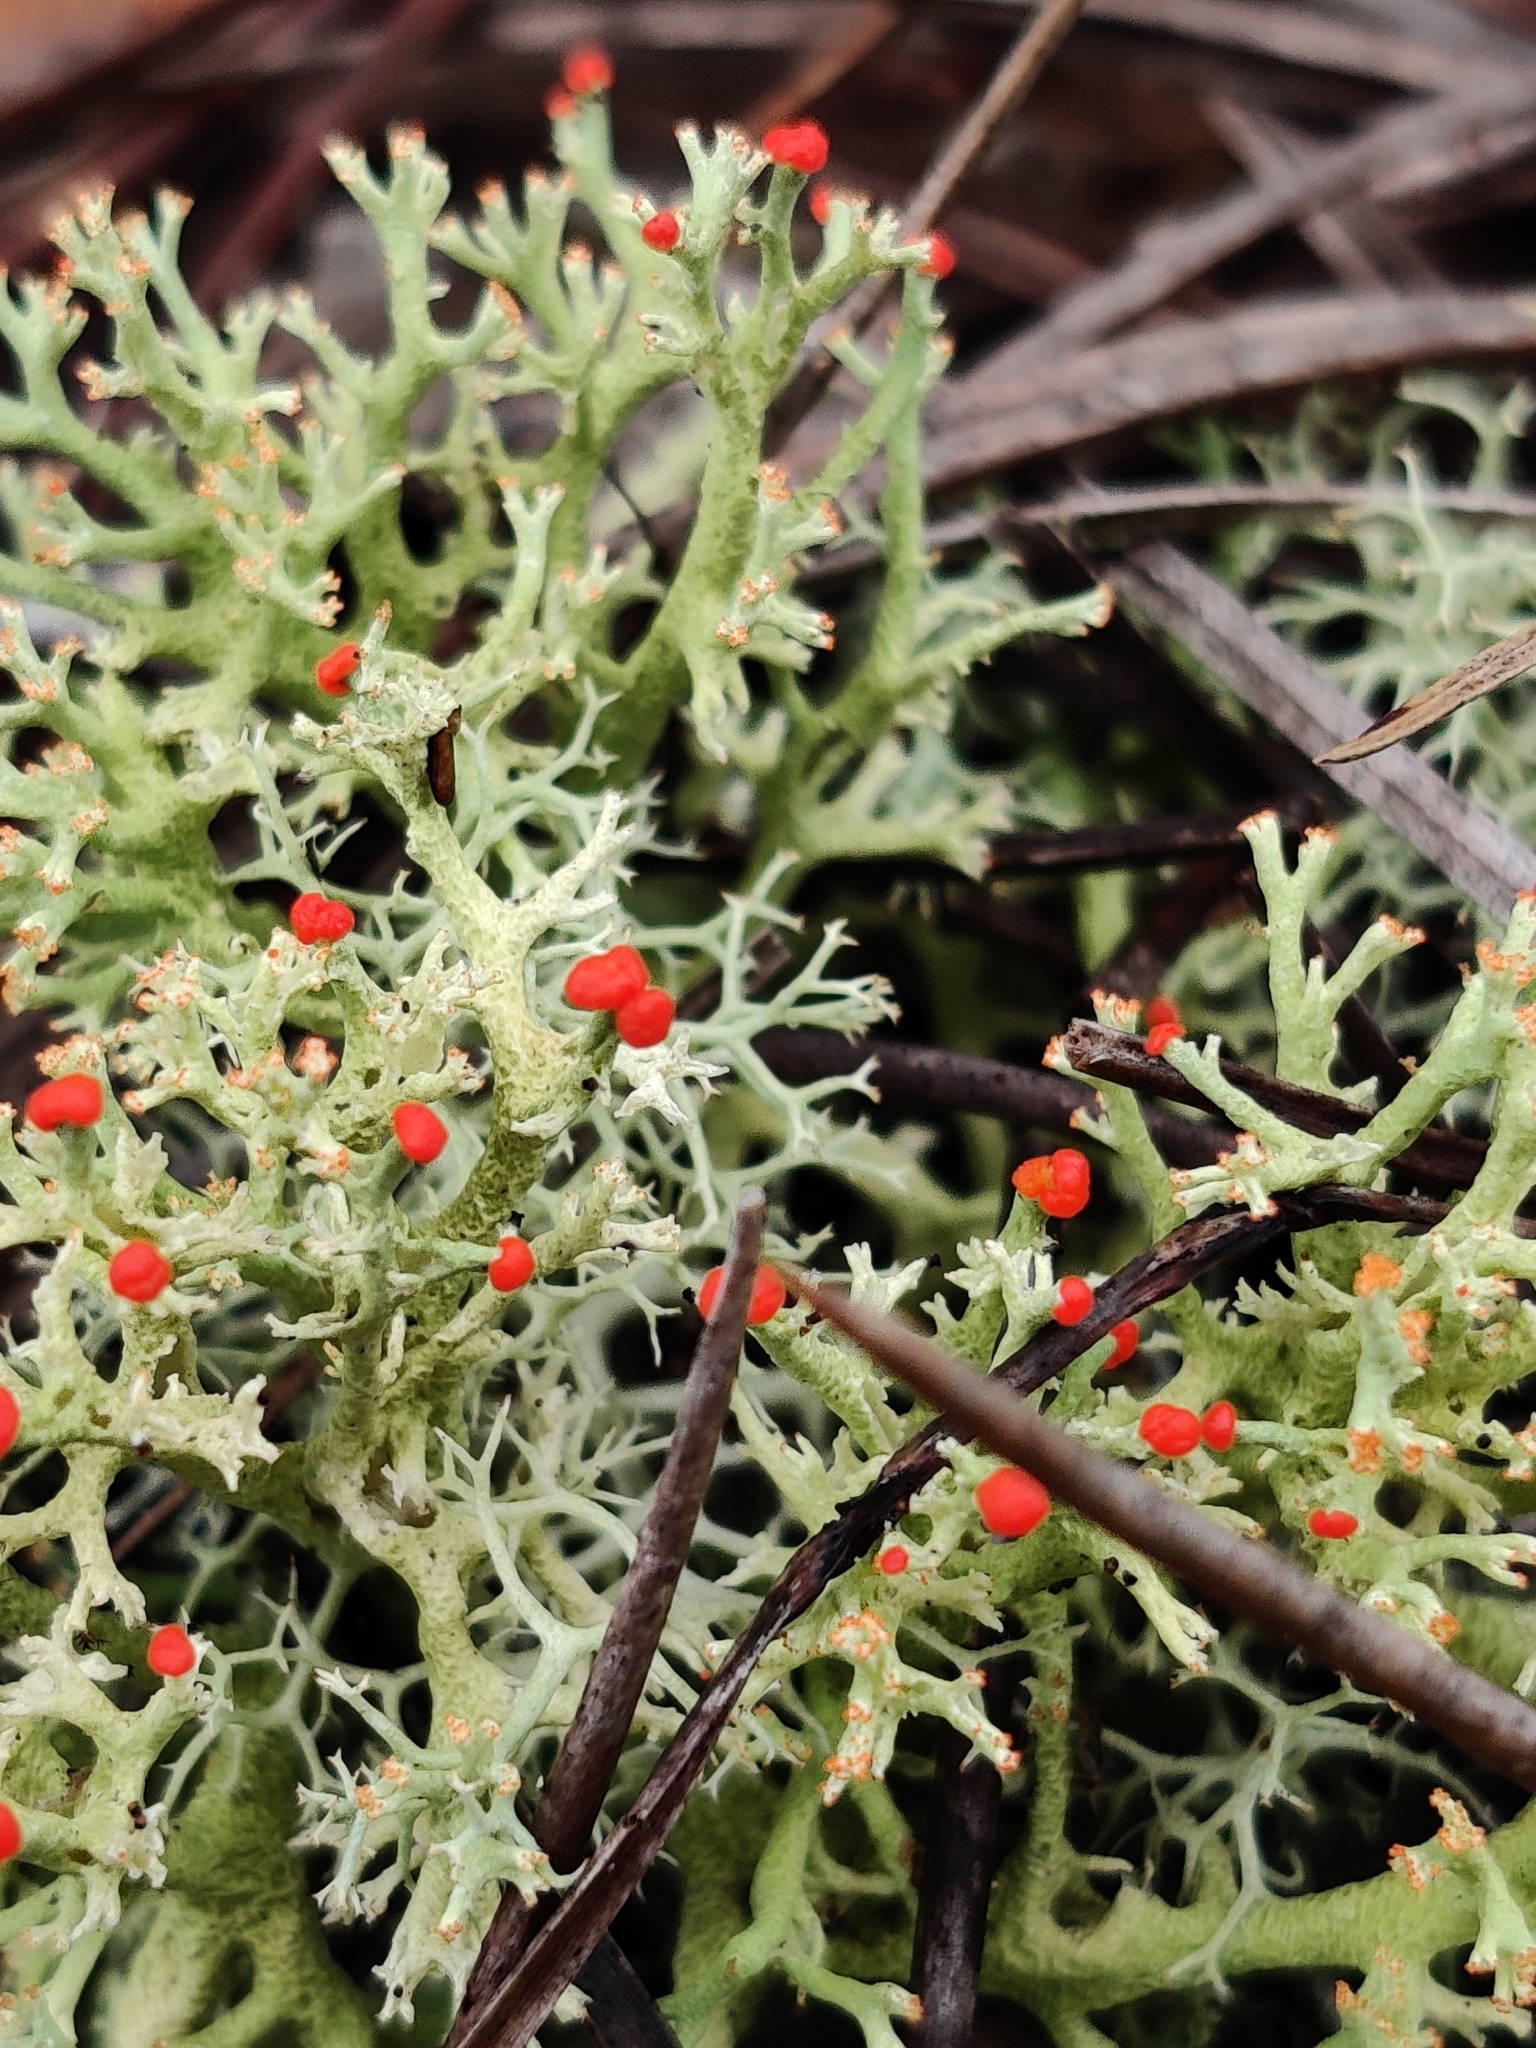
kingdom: Fungi
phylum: Ascomycota
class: Lecanoromycetes
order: Lecanorales
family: Cladoniaceae
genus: Cladonia
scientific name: Cladonia leporina
